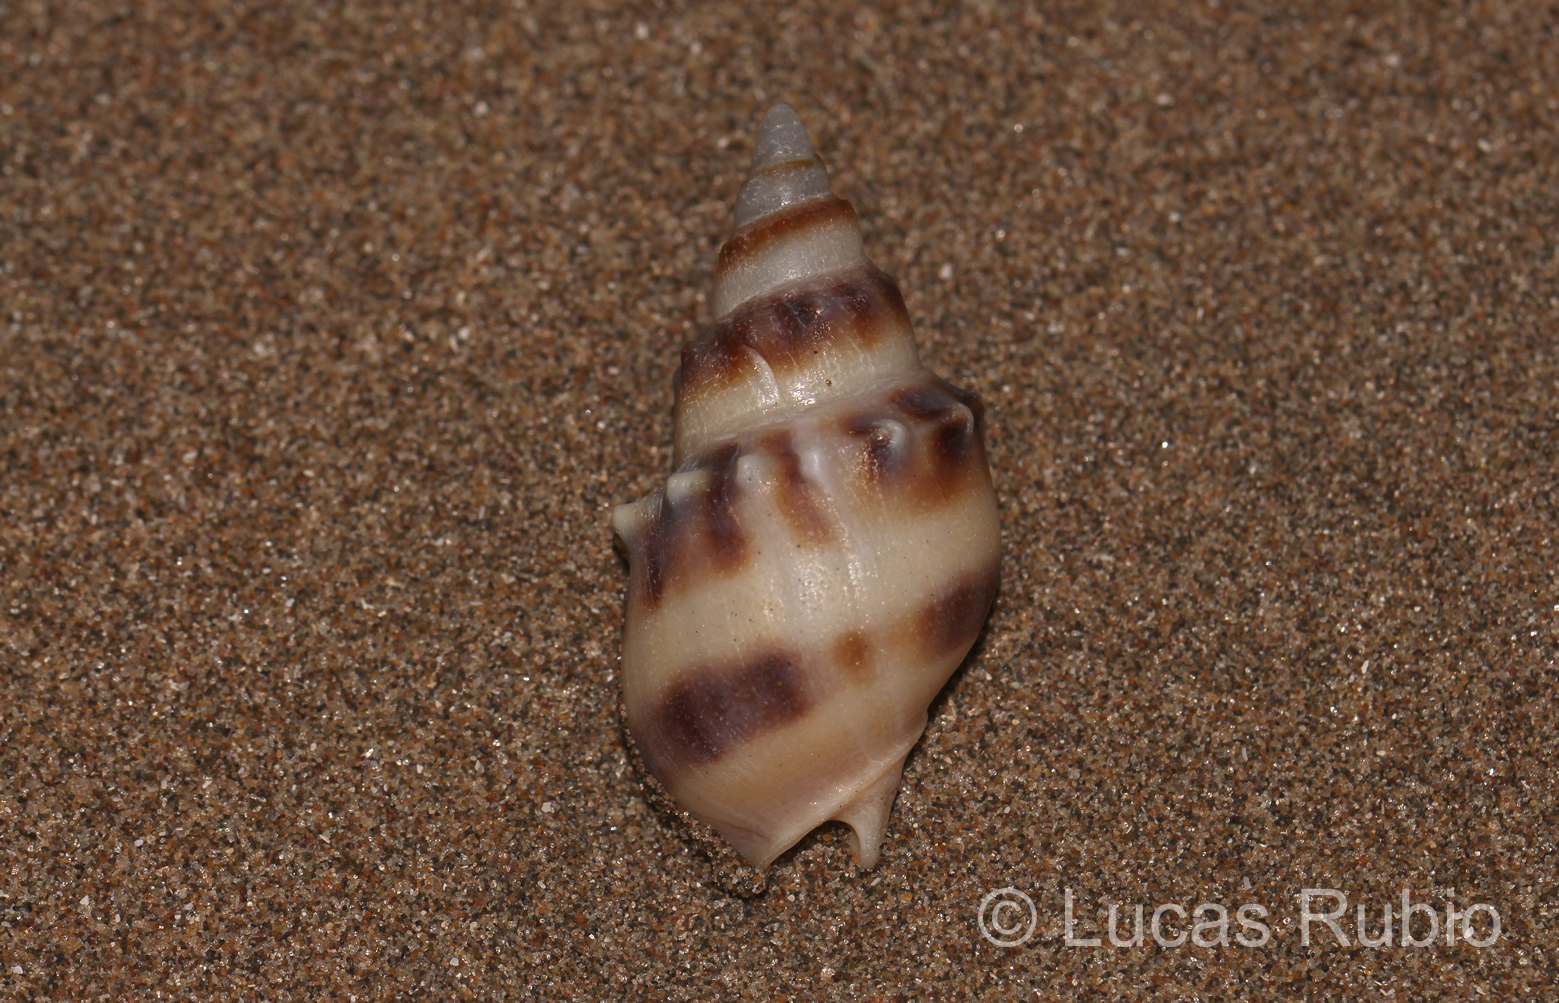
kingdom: Animalia
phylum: Mollusca
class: Gastropoda
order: Neogastropoda
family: Buccinanopsidae
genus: Buccinanops
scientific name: Buccinanops monilifer
